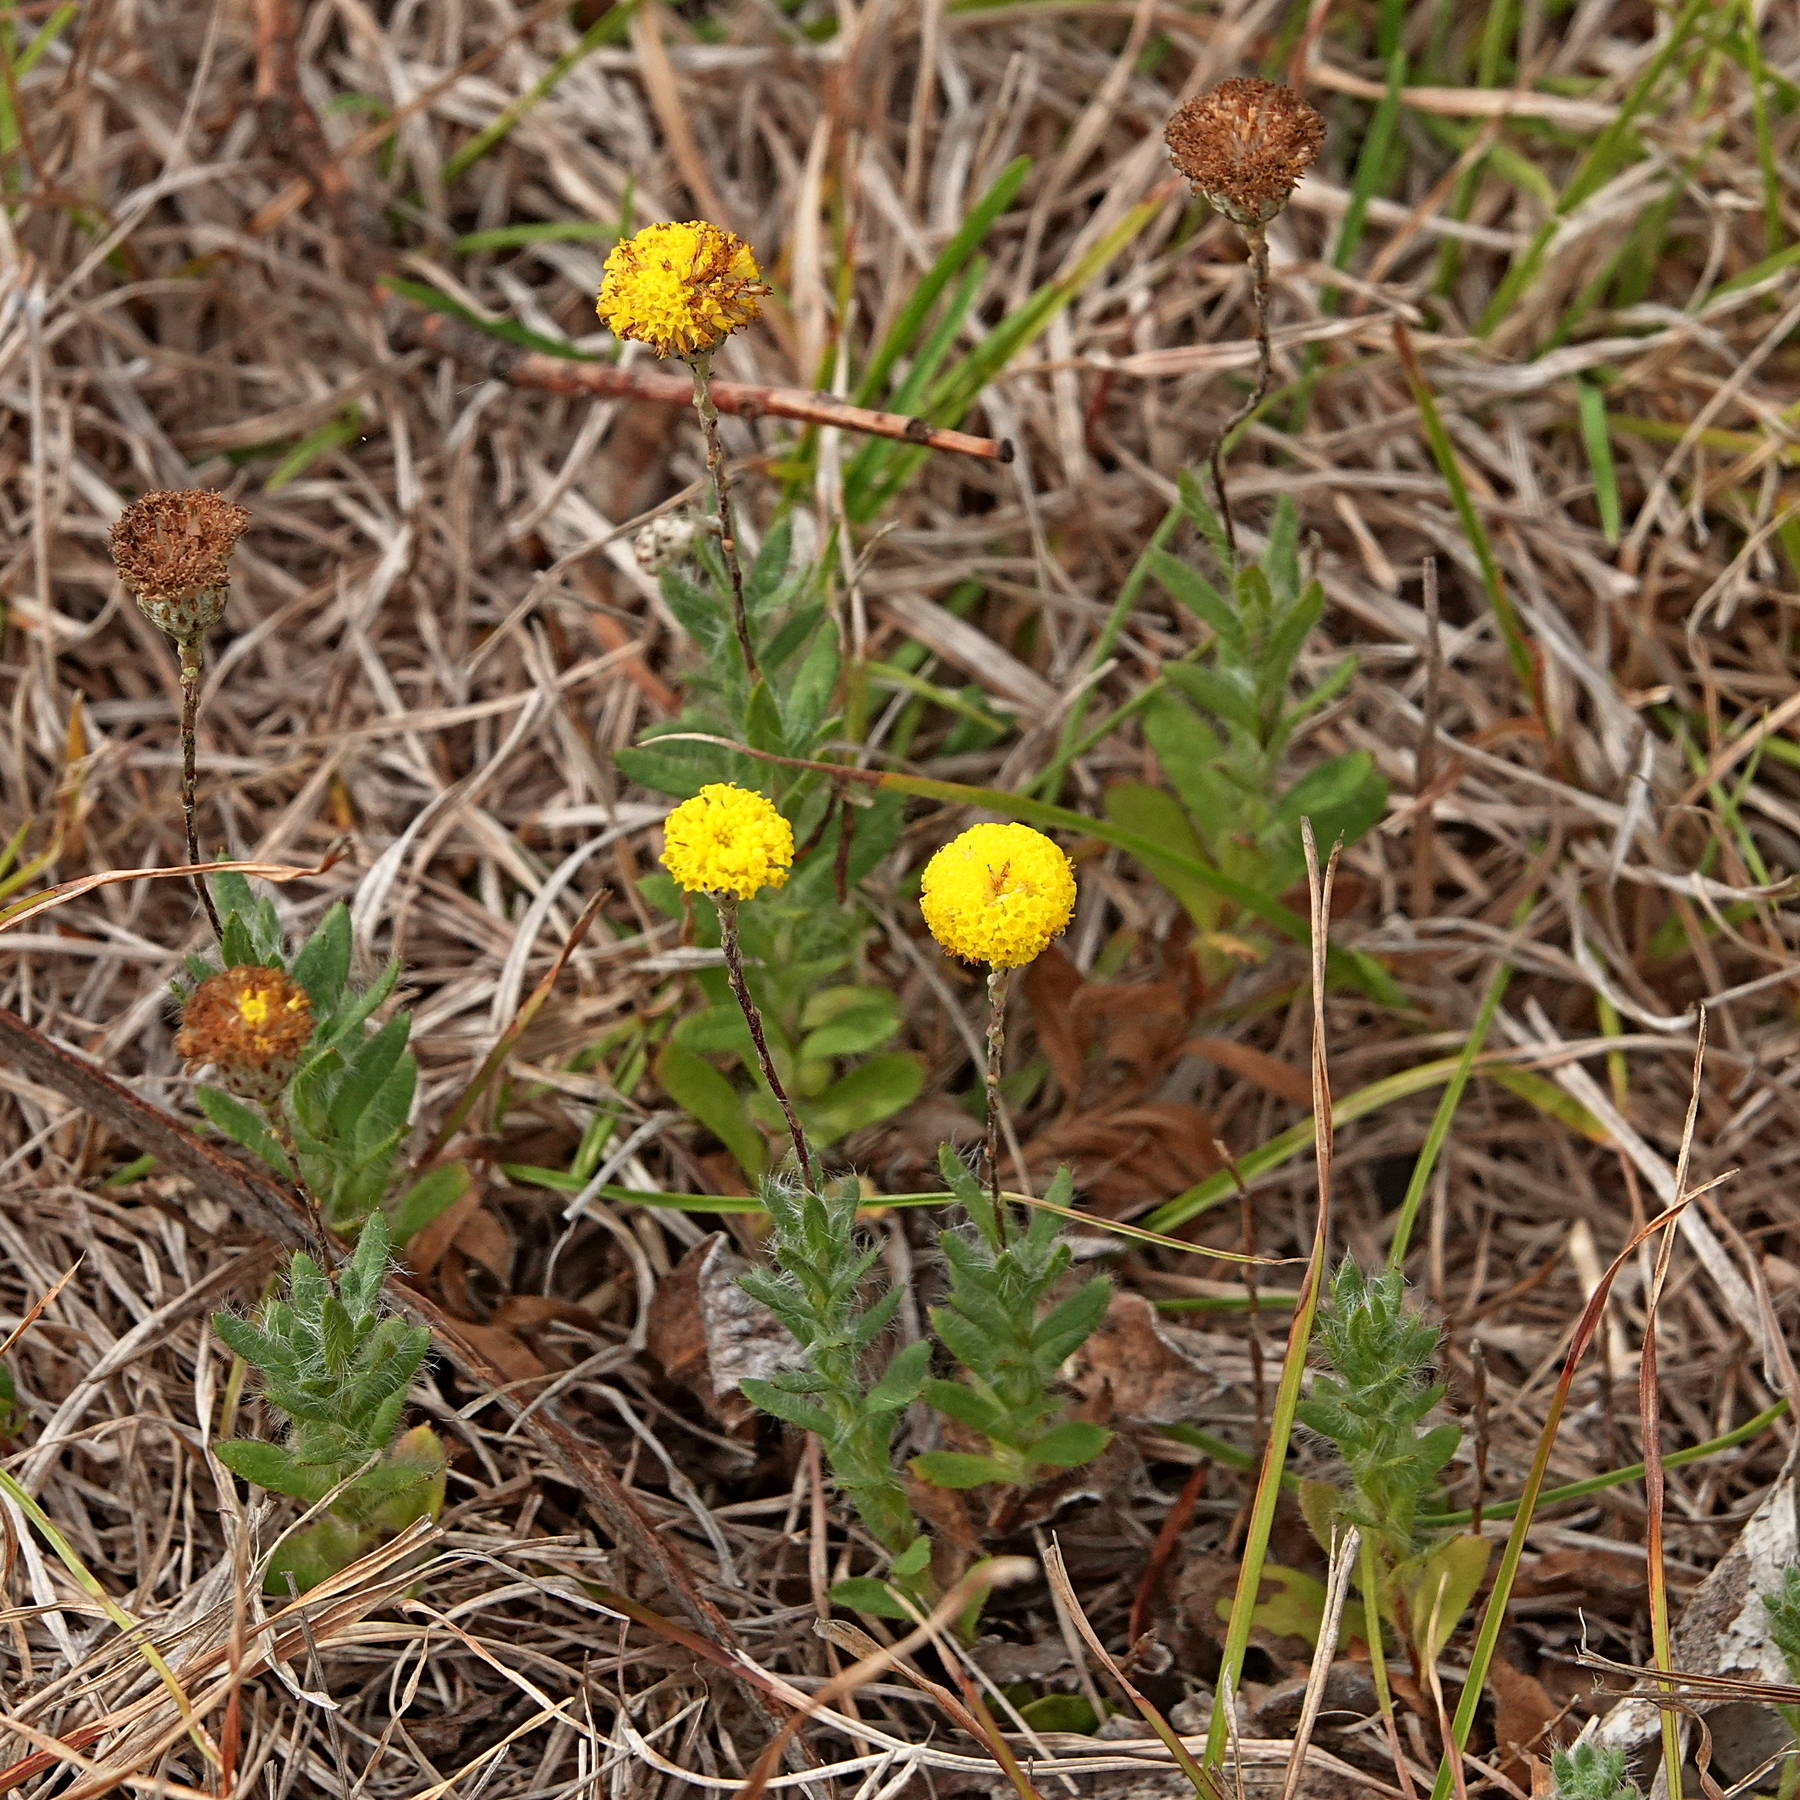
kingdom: Plantae
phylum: Tracheophyta
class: Magnoliopsida
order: Asterales
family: Asteraceae
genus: Leptorhynchos
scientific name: Leptorhynchos squamatus
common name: Scaly-buttons
